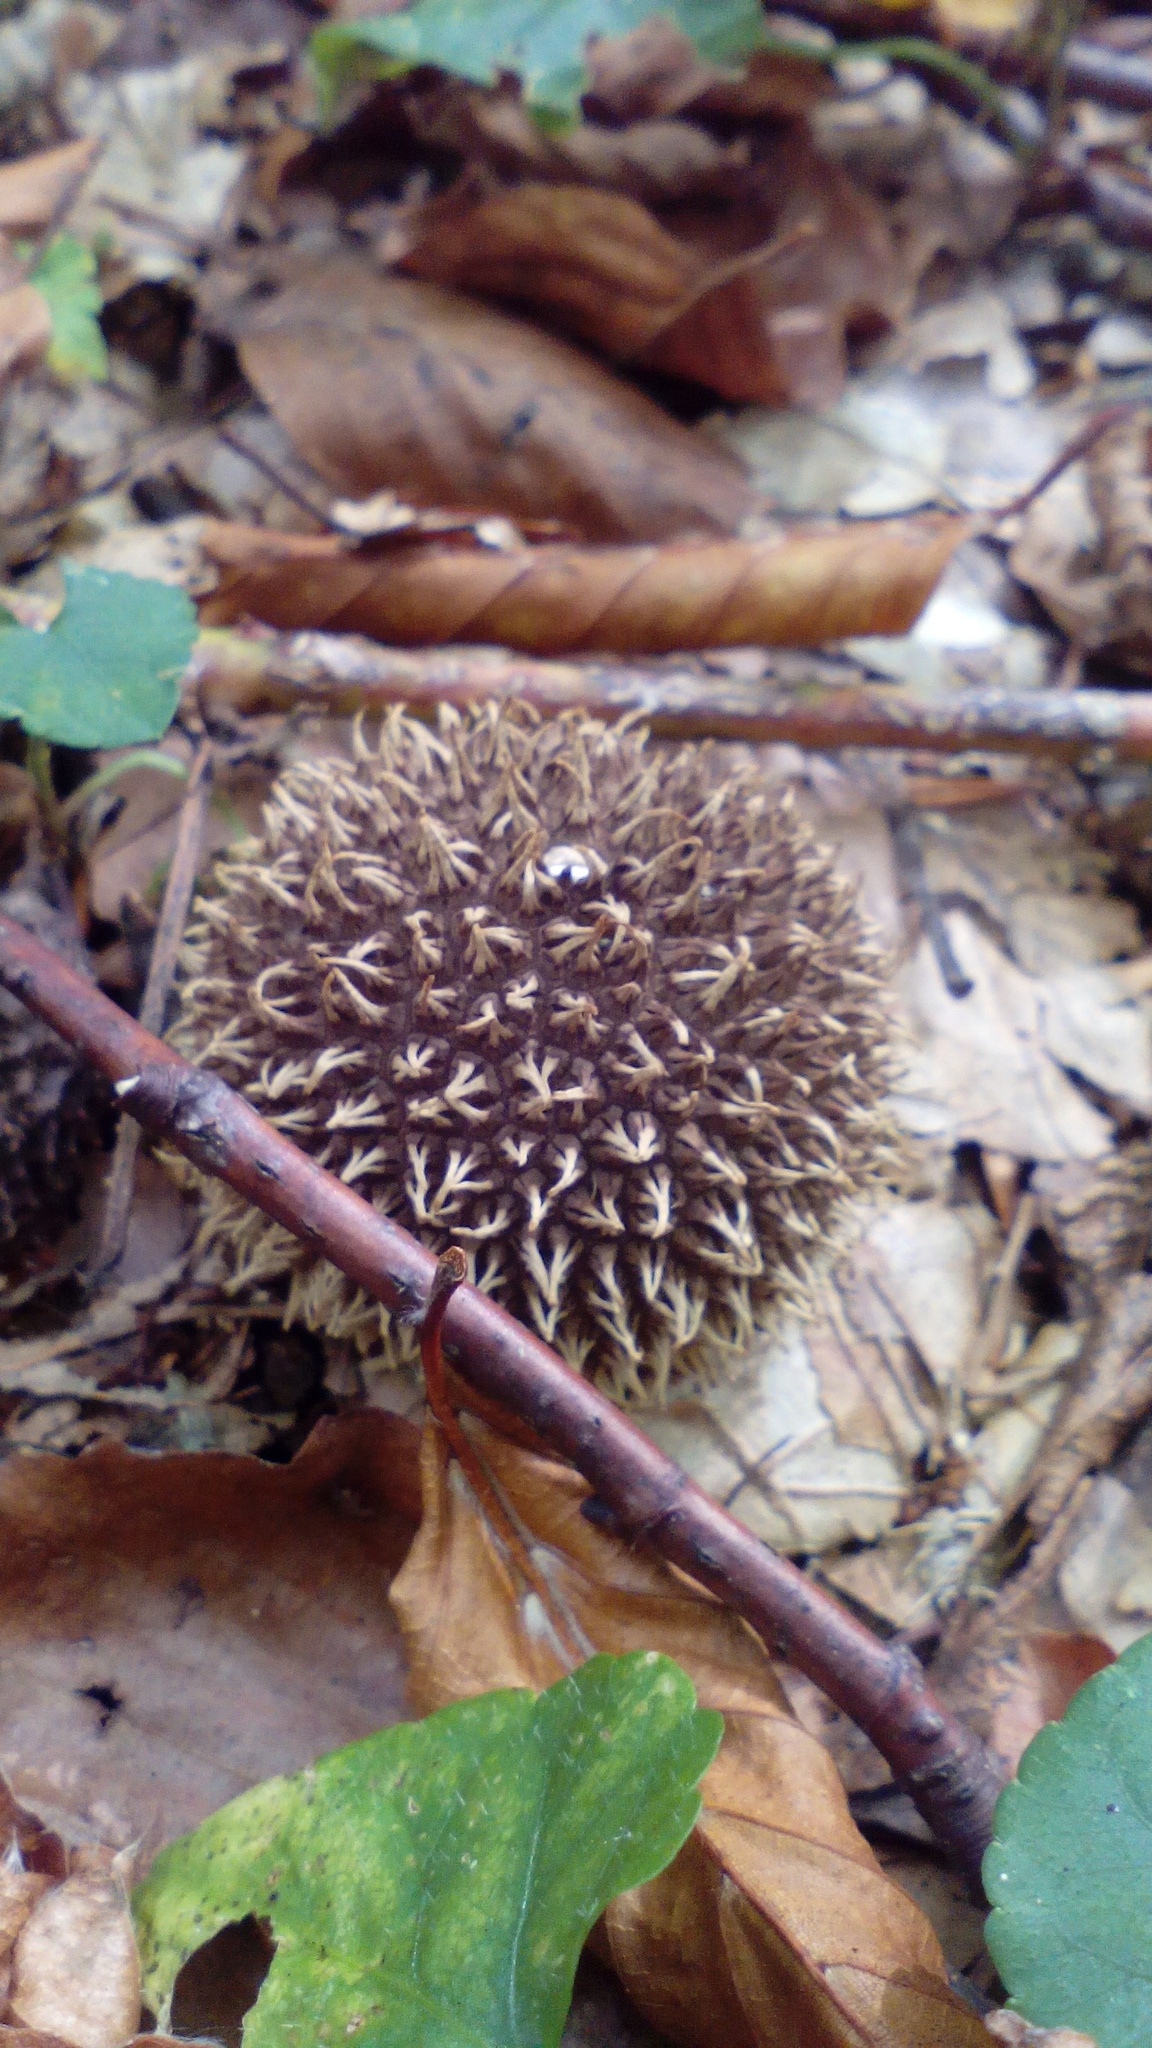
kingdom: Fungi
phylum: Basidiomycota
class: Agaricomycetes
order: Agaricales
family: Lycoperdaceae
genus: Lycoperdon
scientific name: Lycoperdon echinatum
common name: Hedgehog puffball
